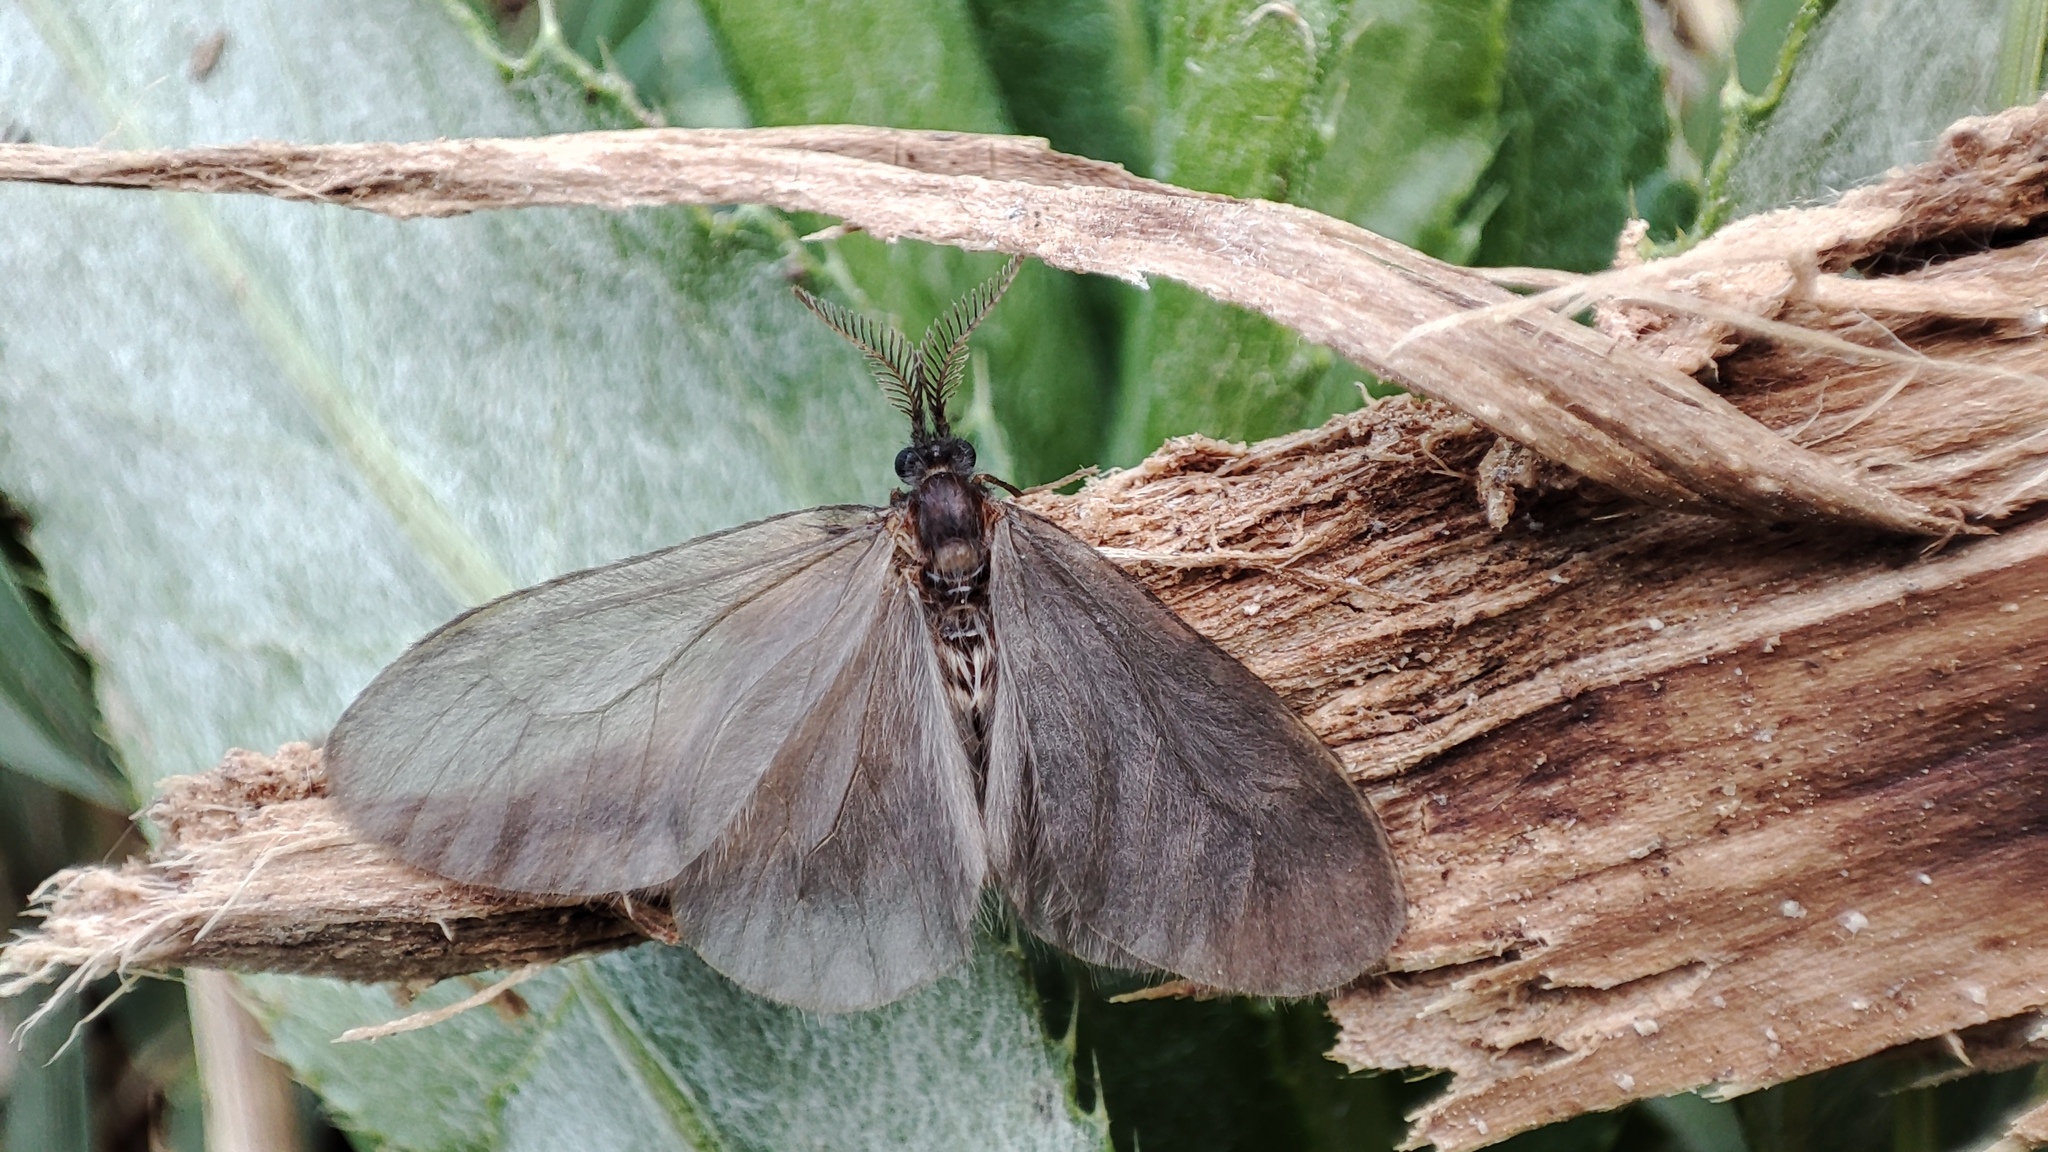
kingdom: Animalia
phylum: Arthropoda
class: Insecta
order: Lepidoptera
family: Psychidae
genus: Sterrhopterix
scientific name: Sterrhopterix fusca
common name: Brown sweep
